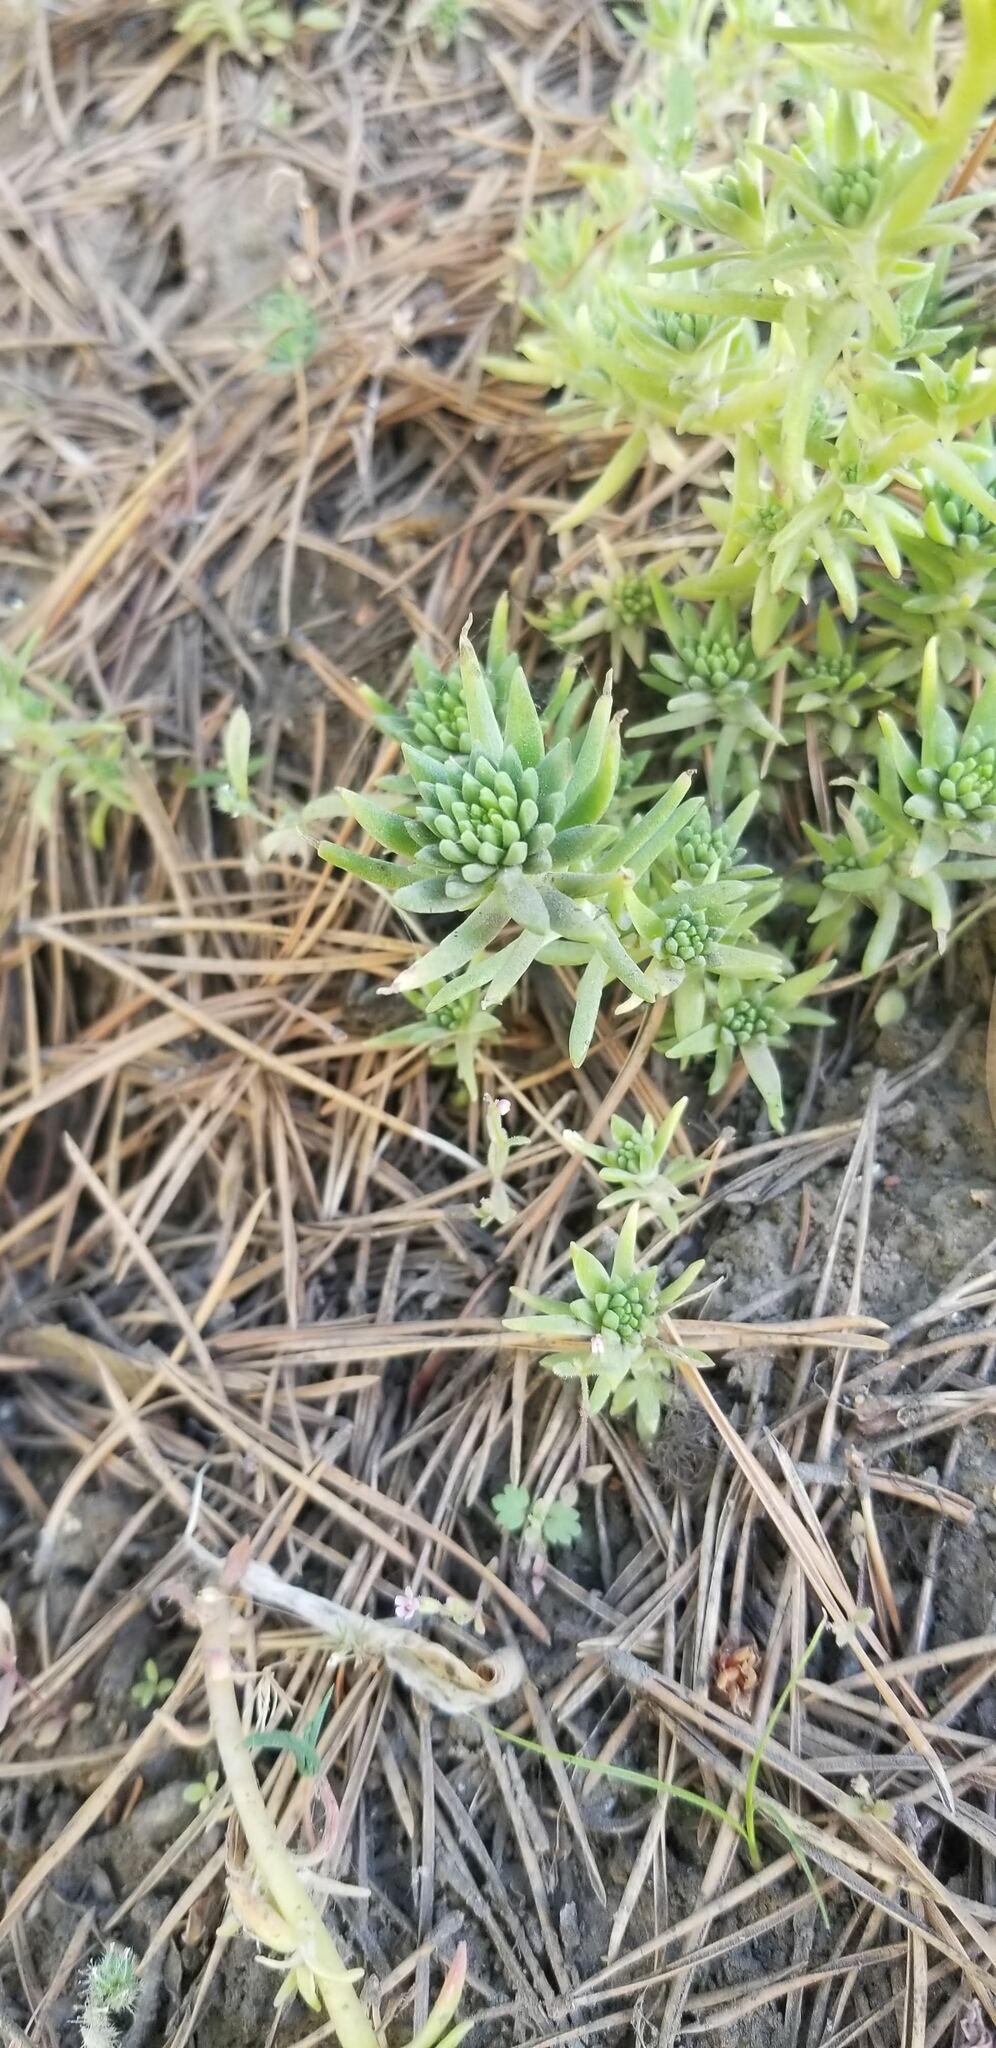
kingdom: Plantae
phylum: Tracheophyta
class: Magnoliopsida
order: Saxifragales
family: Crassulaceae
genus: Sedum
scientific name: Sedum stenopetalum
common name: Narrow-petaled stonecrop
